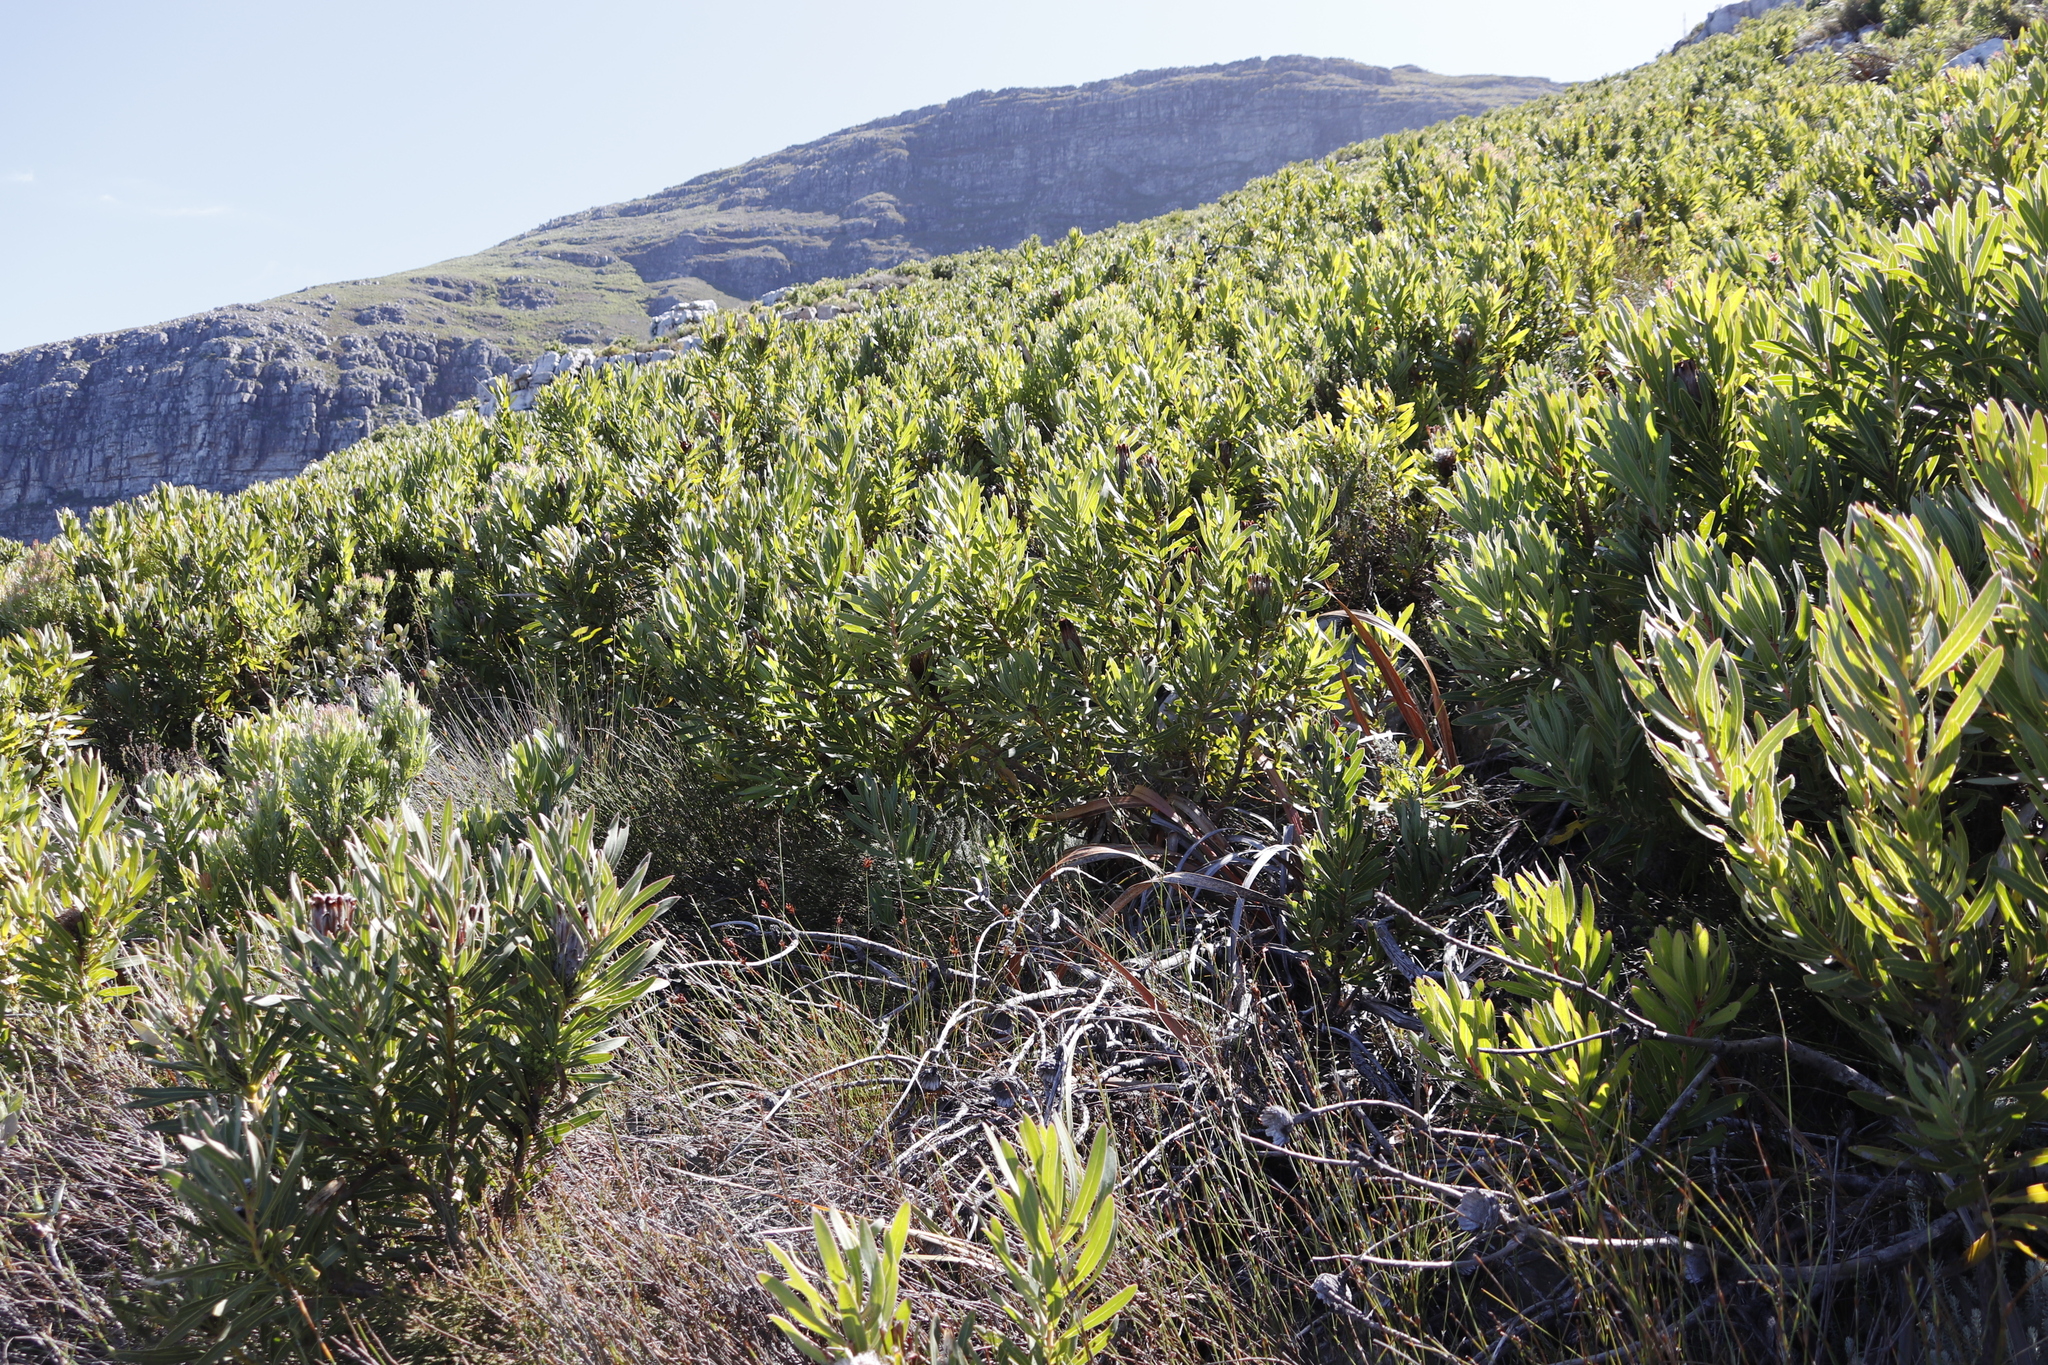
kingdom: Plantae
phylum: Tracheophyta
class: Magnoliopsida
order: Proteales
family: Proteaceae
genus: Protea
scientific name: Protea lepidocarpodendron
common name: Black-bearded protea
